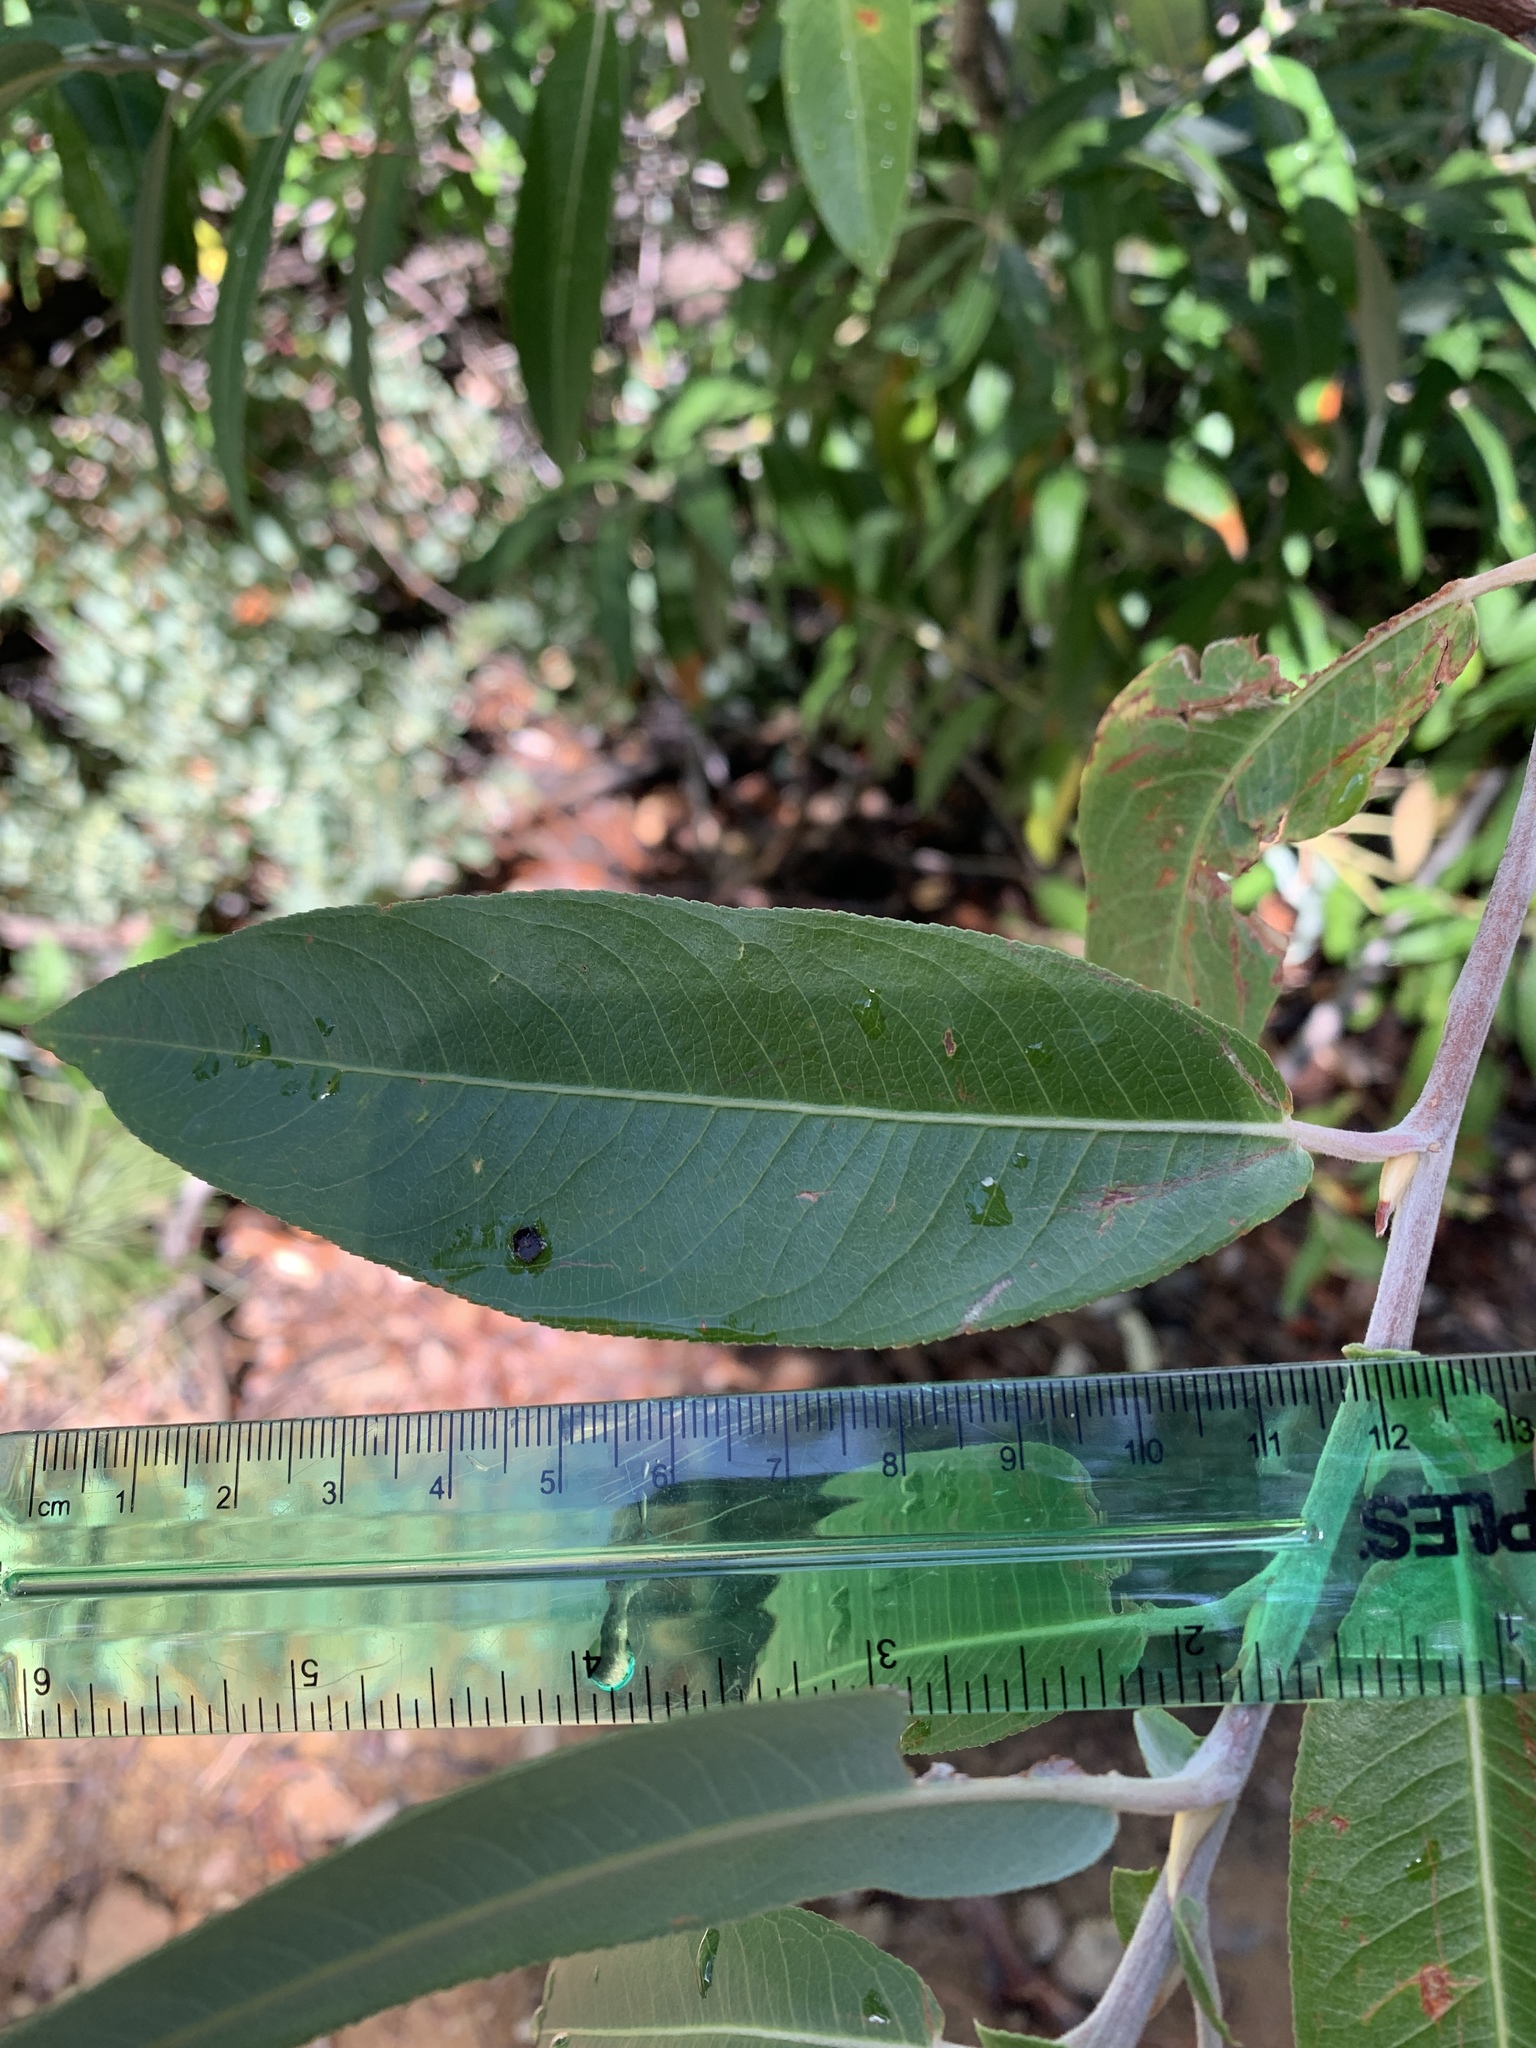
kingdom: Plantae
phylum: Tracheophyta
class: Magnoliopsida
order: Malpighiales
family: Salicaceae
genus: Salix
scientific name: Salix laevigata
